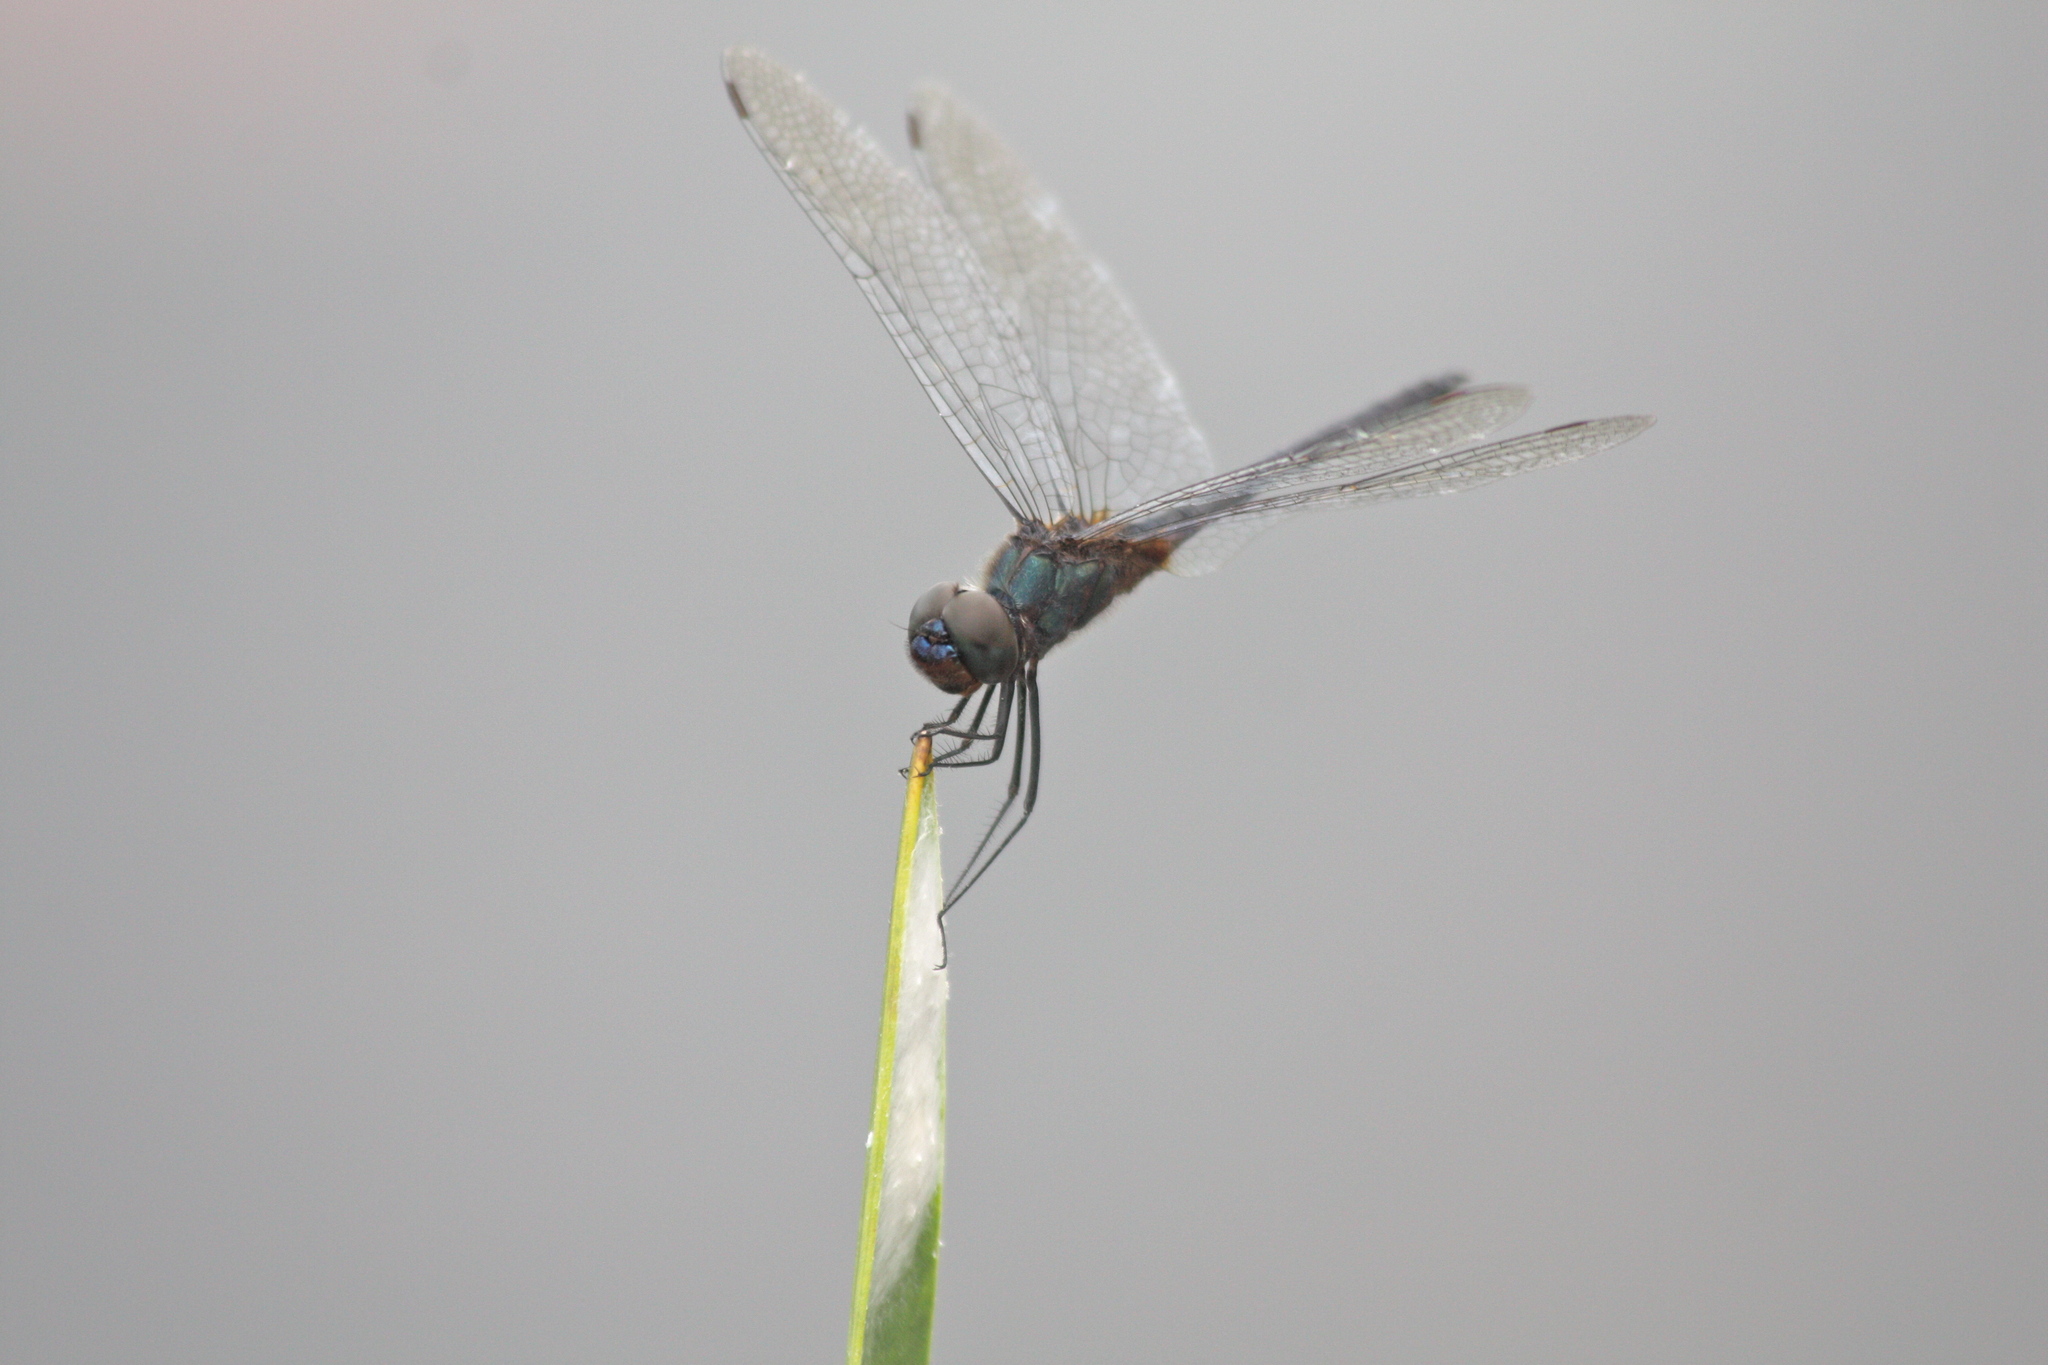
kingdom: Animalia
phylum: Arthropoda
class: Insecta
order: Odonata
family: Libellulidae
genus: Idiataphe
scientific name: Idiataphe cubensis
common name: Metallic pennant
